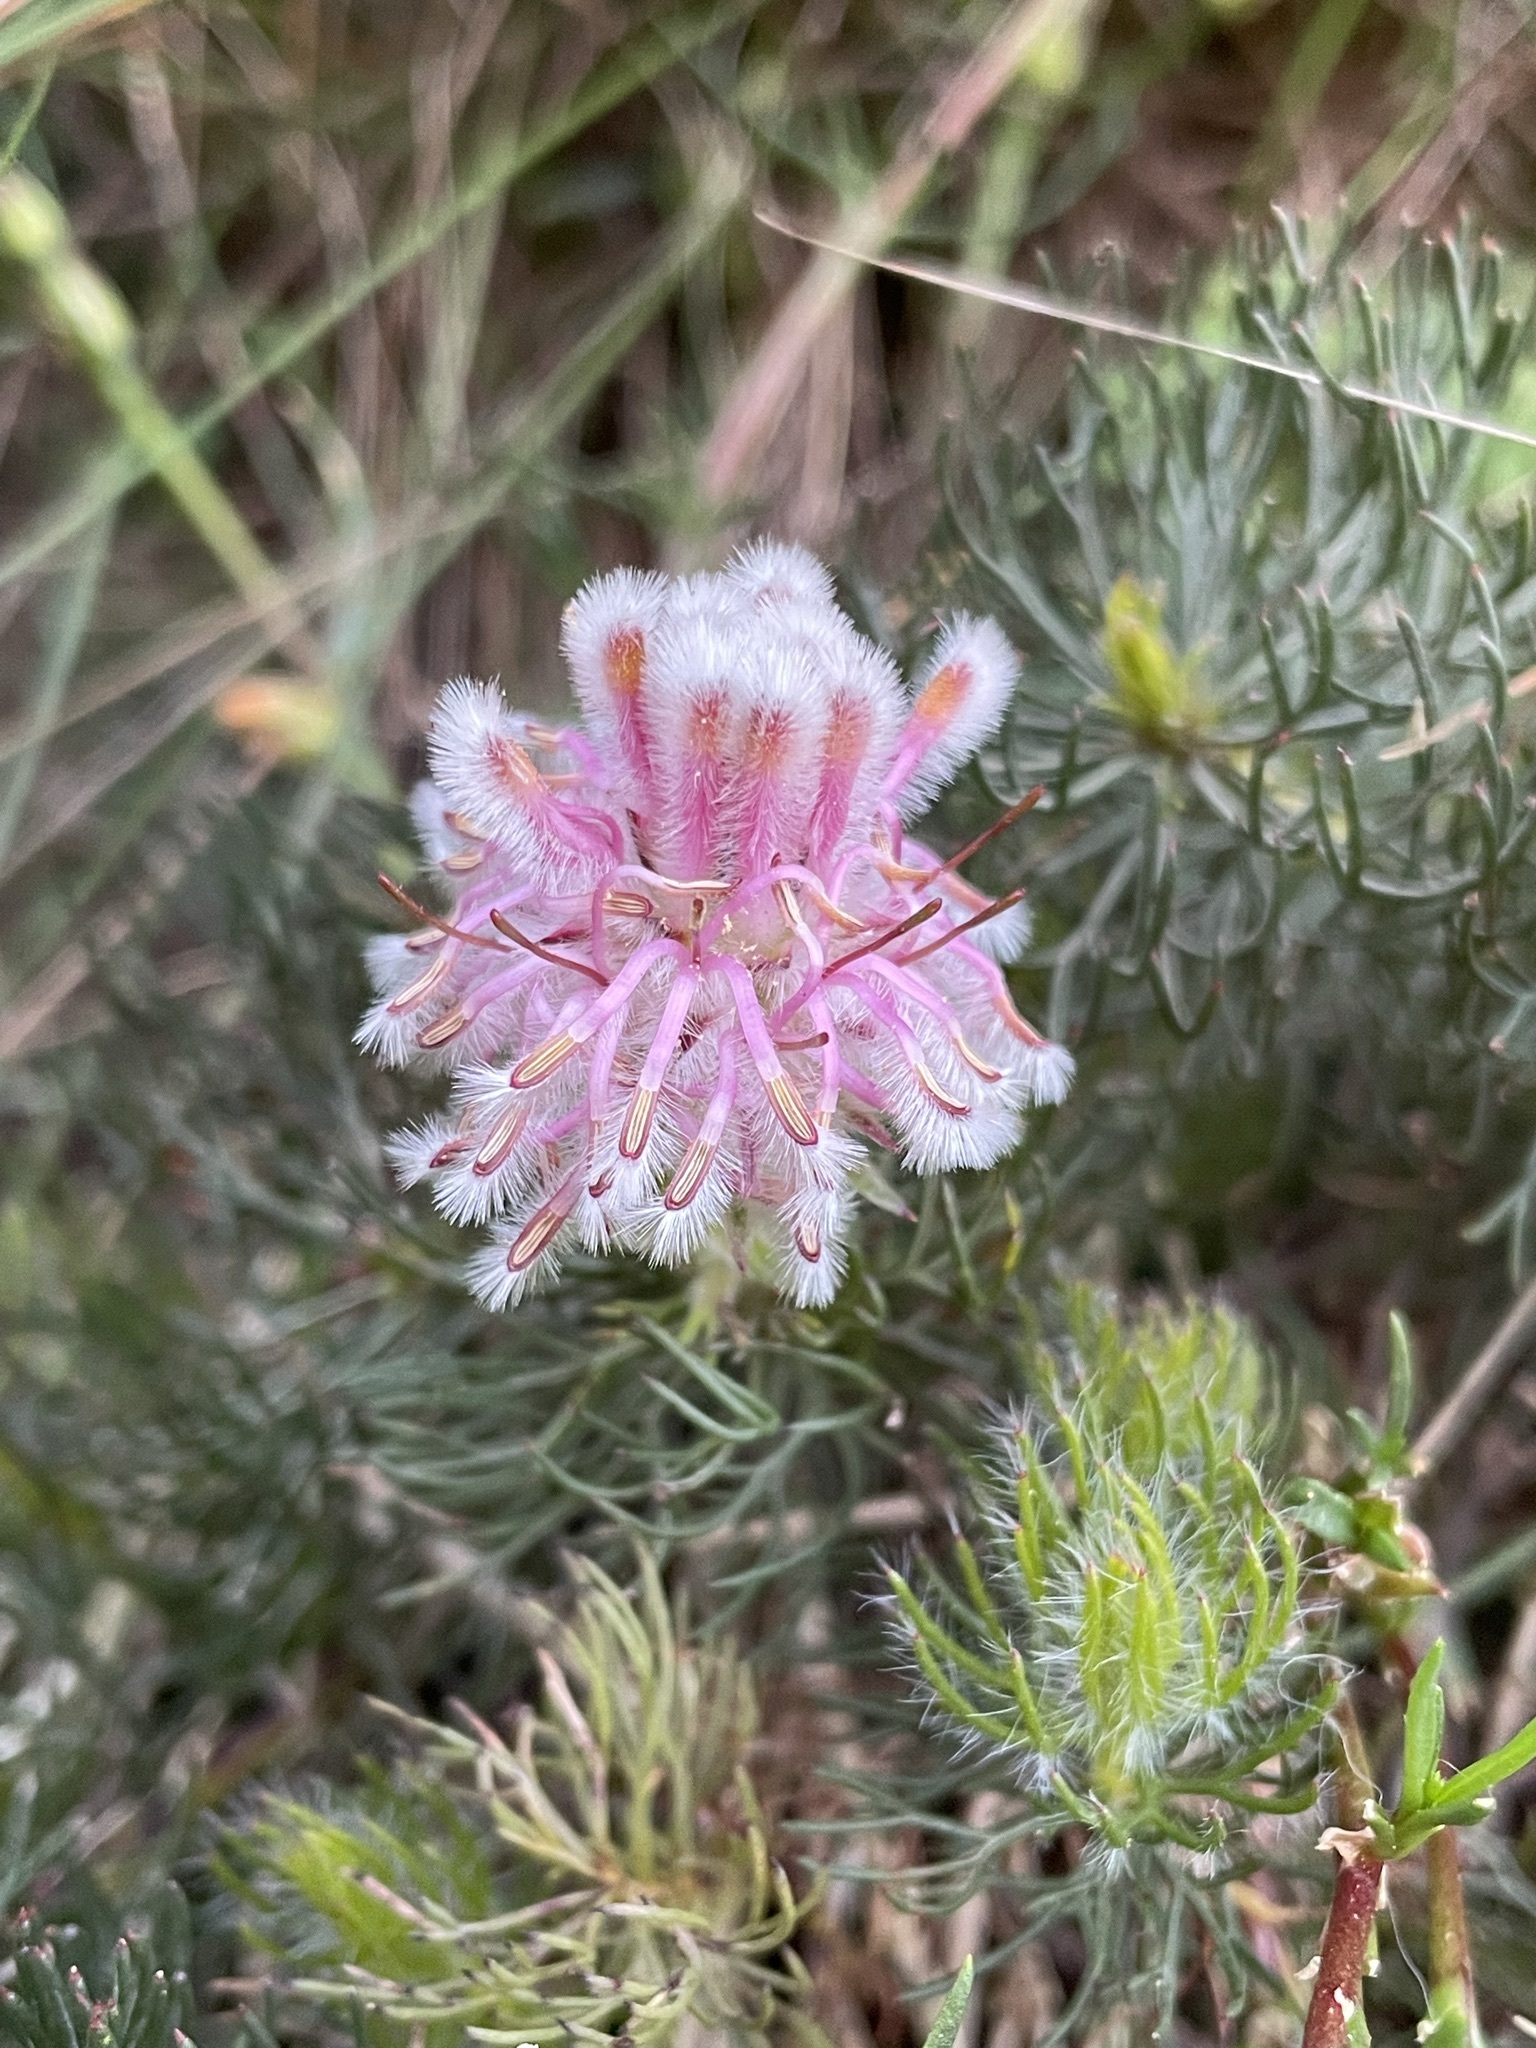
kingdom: Plantae
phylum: Tracheophyta
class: Magnoliopsida
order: Proteales
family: Proteaceae
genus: Serruria
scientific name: Serruria cyanoides
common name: Wynberg spiderhead
